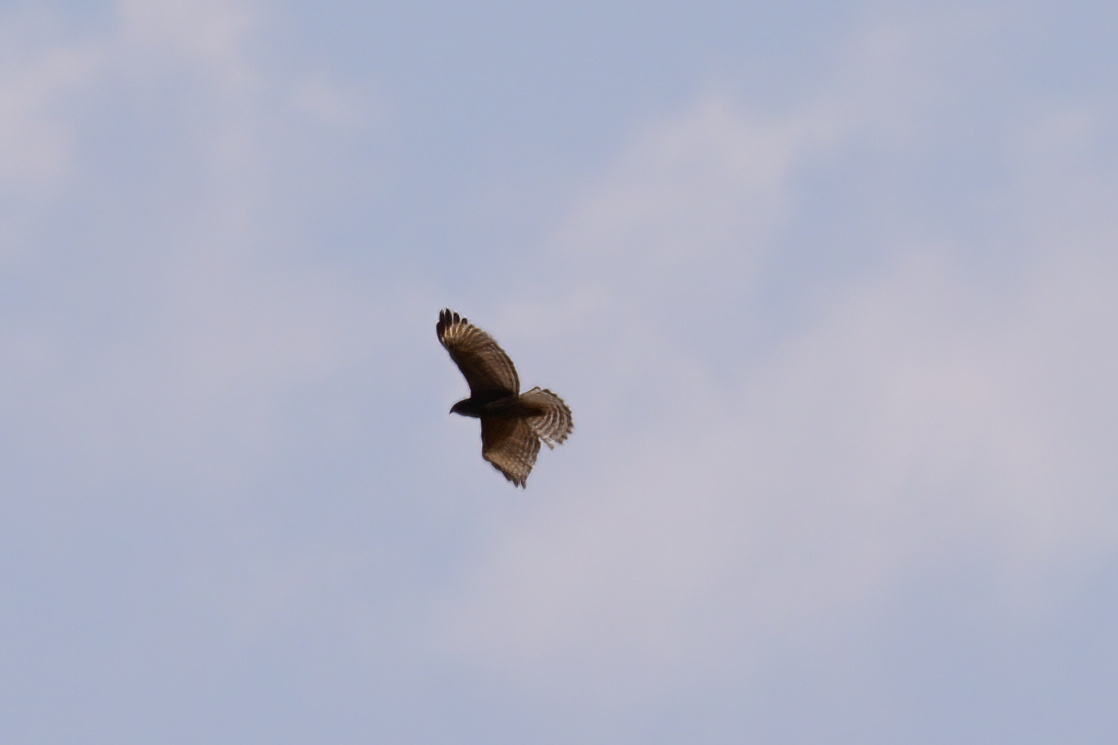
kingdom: Animalia
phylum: Chordata
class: Aves
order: Accipitriformes
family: Accipitridae
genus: Buteo
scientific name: Buteo lineatus
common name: Red-shouldered hawk
